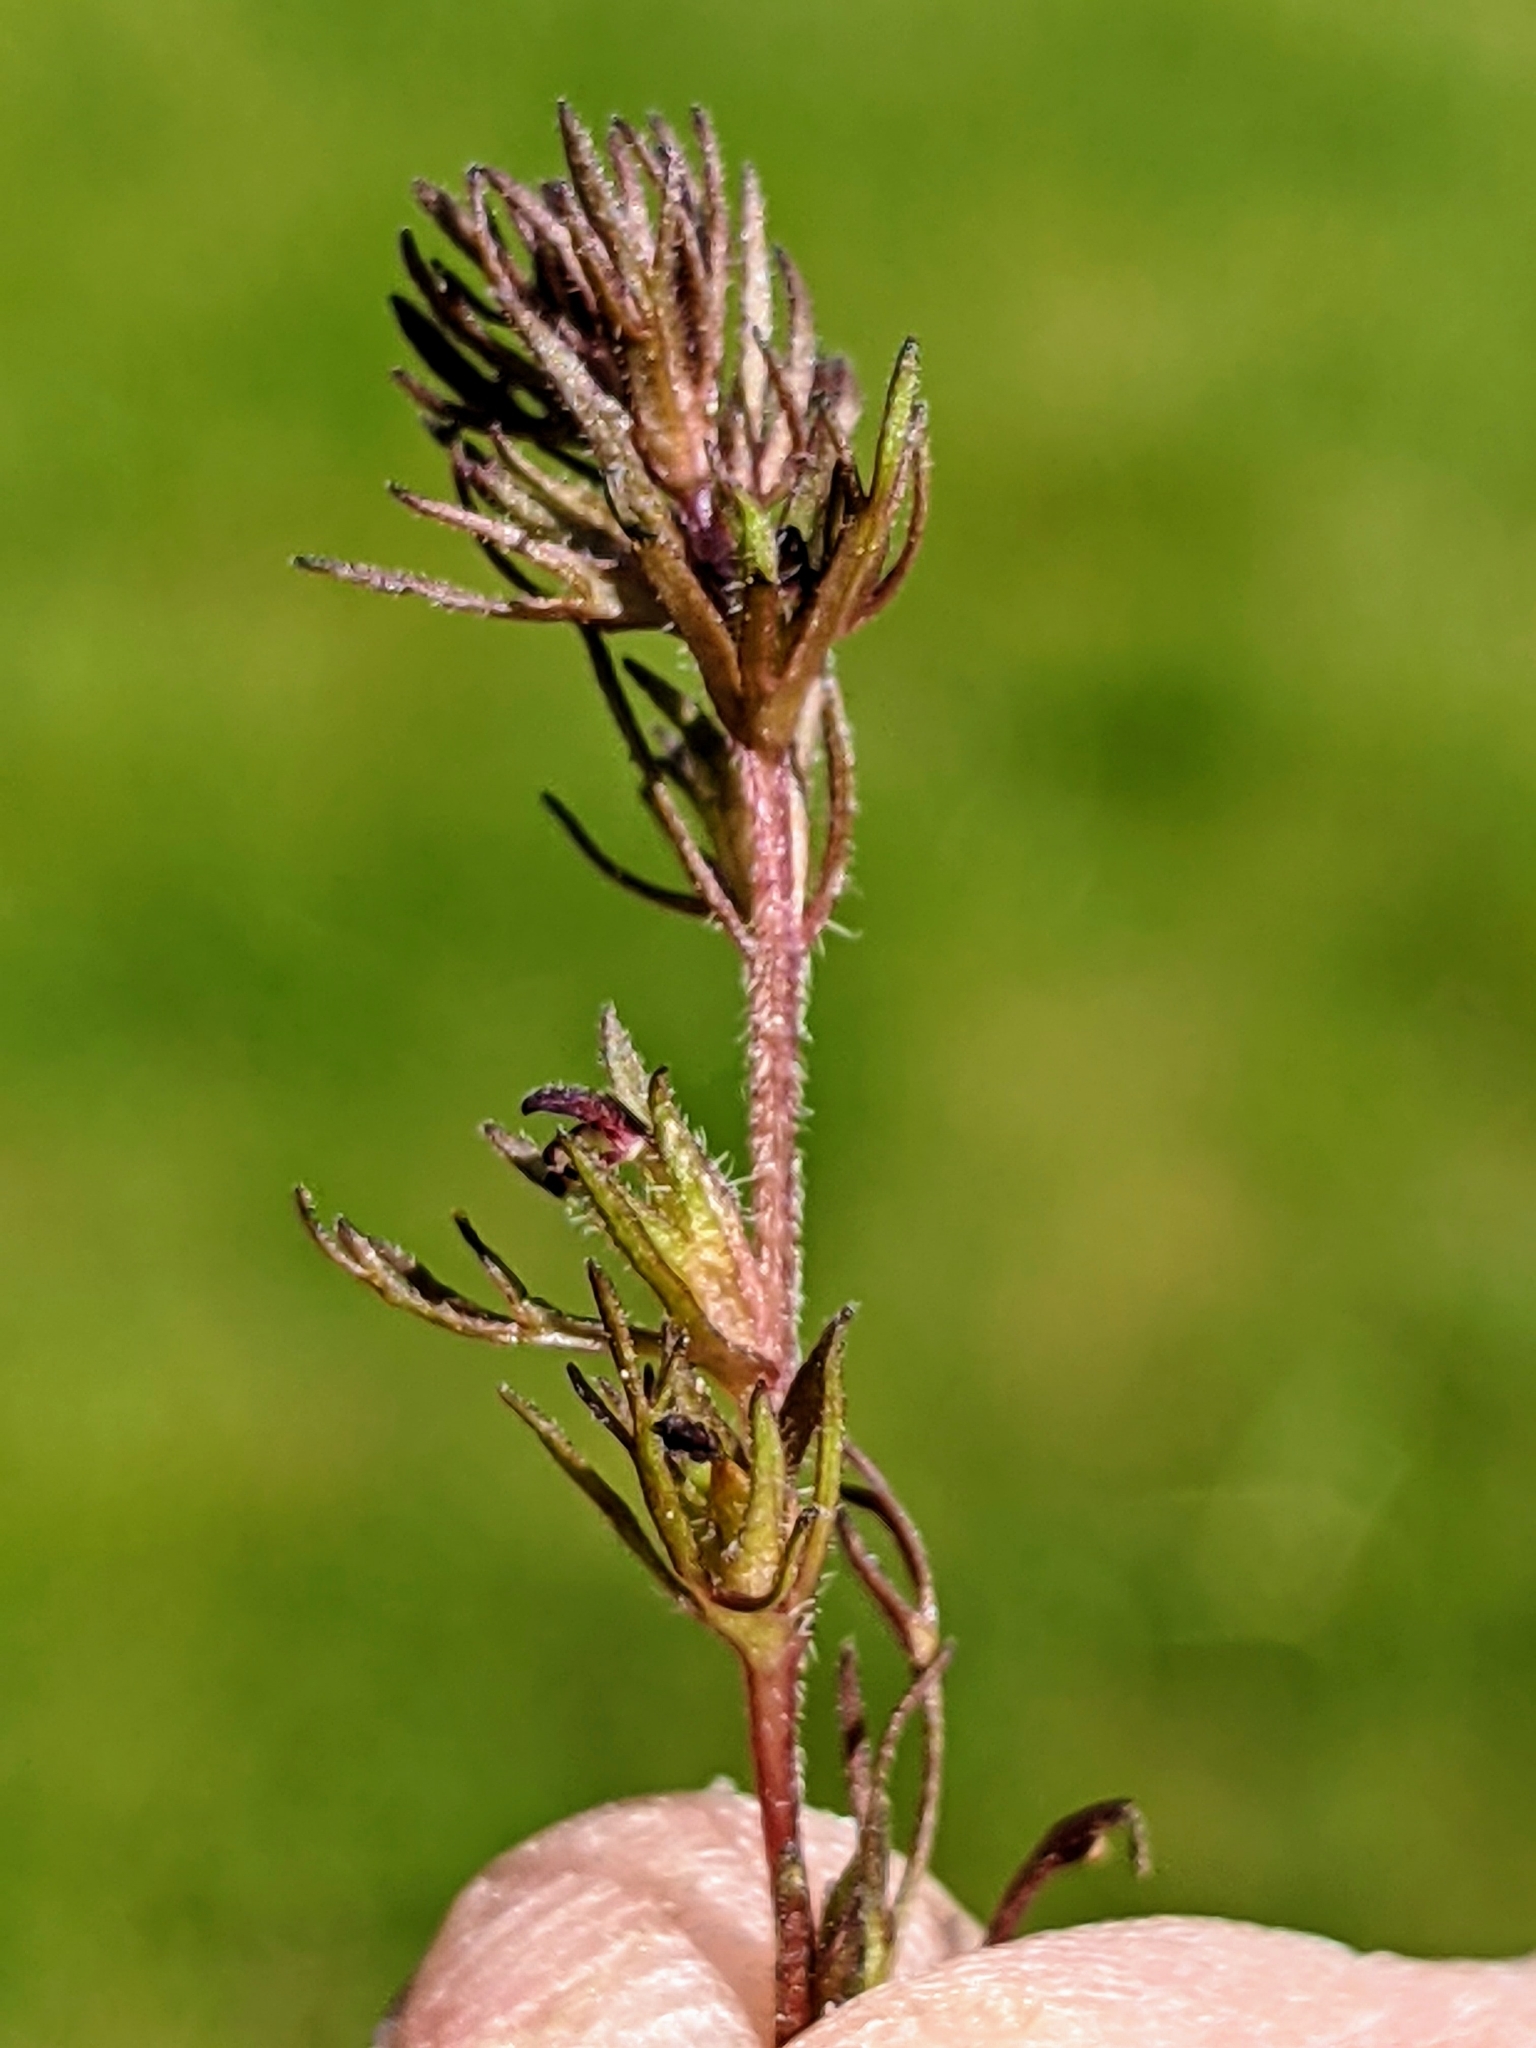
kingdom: Plantae
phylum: Tracheophyta
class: Magnoliopsida
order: Lamiales
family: Orobanchaceae
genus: Triphysaria
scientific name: Triphysaria pusilla
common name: Dwarf false owl-clover
